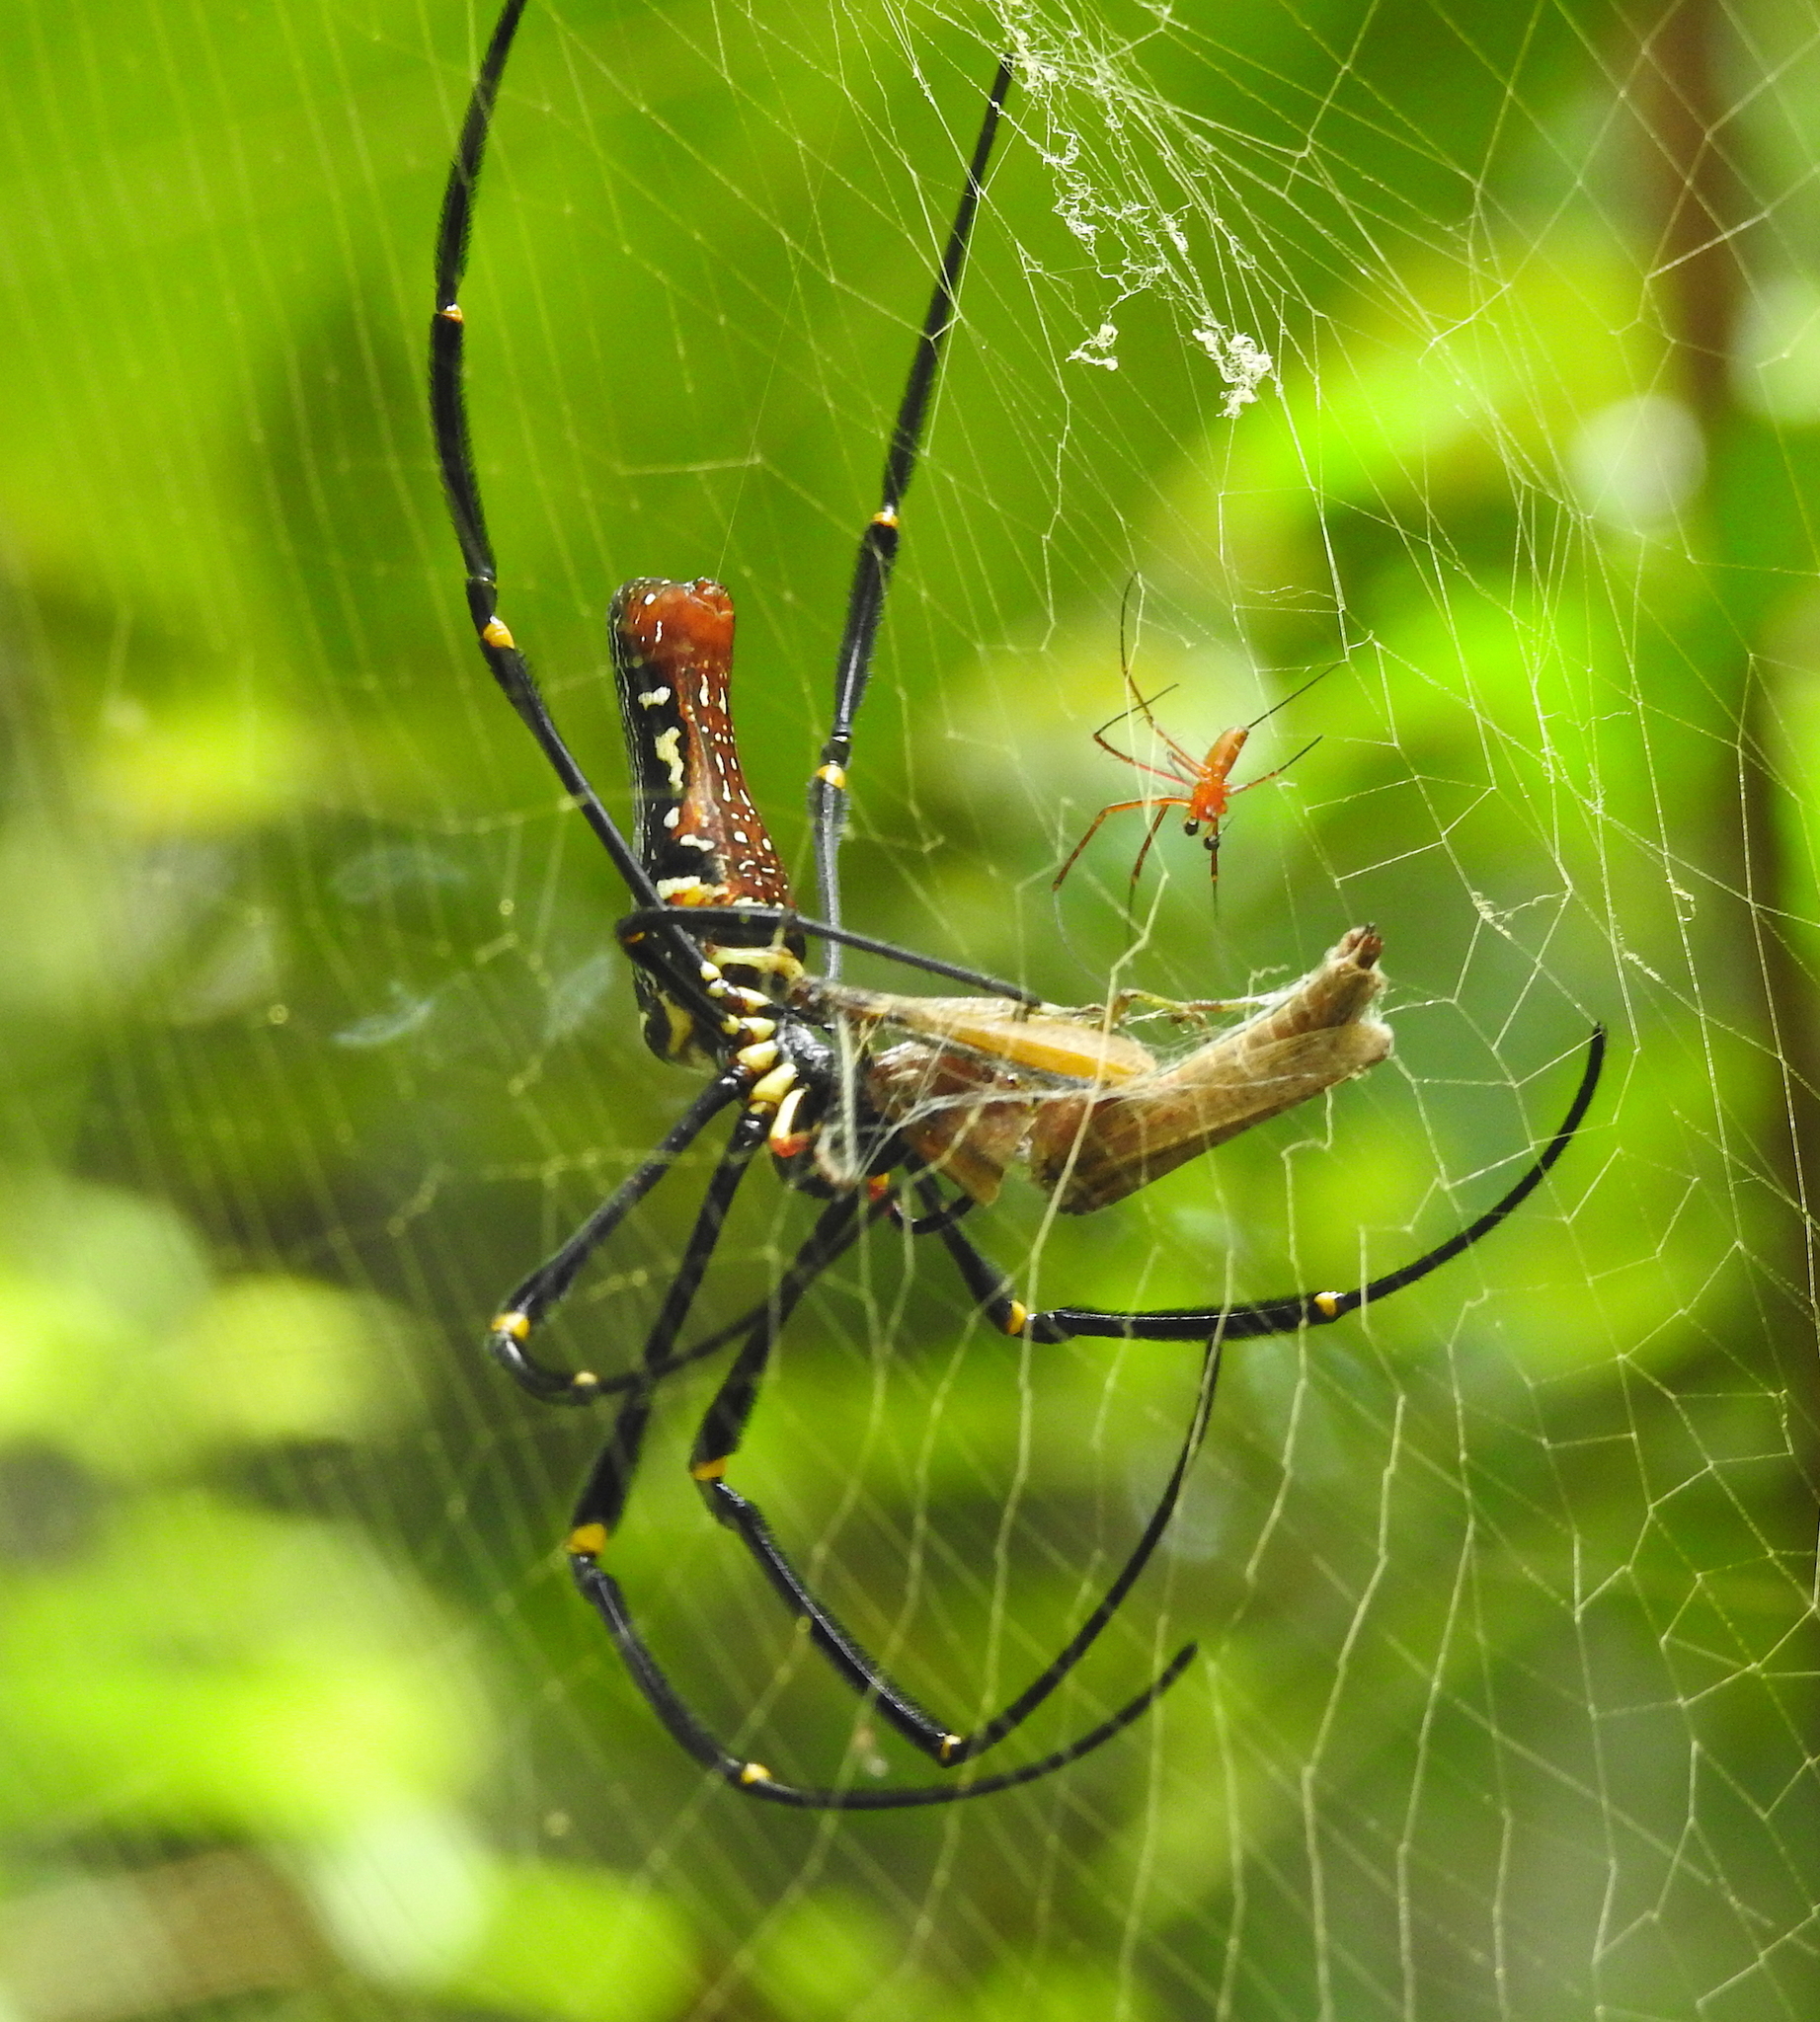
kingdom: Animalia
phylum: Arthropoda
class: Arachnida
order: Araneae
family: Araneidae
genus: Nephila
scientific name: Nephila pilipes
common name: Giant golden orb weaver
